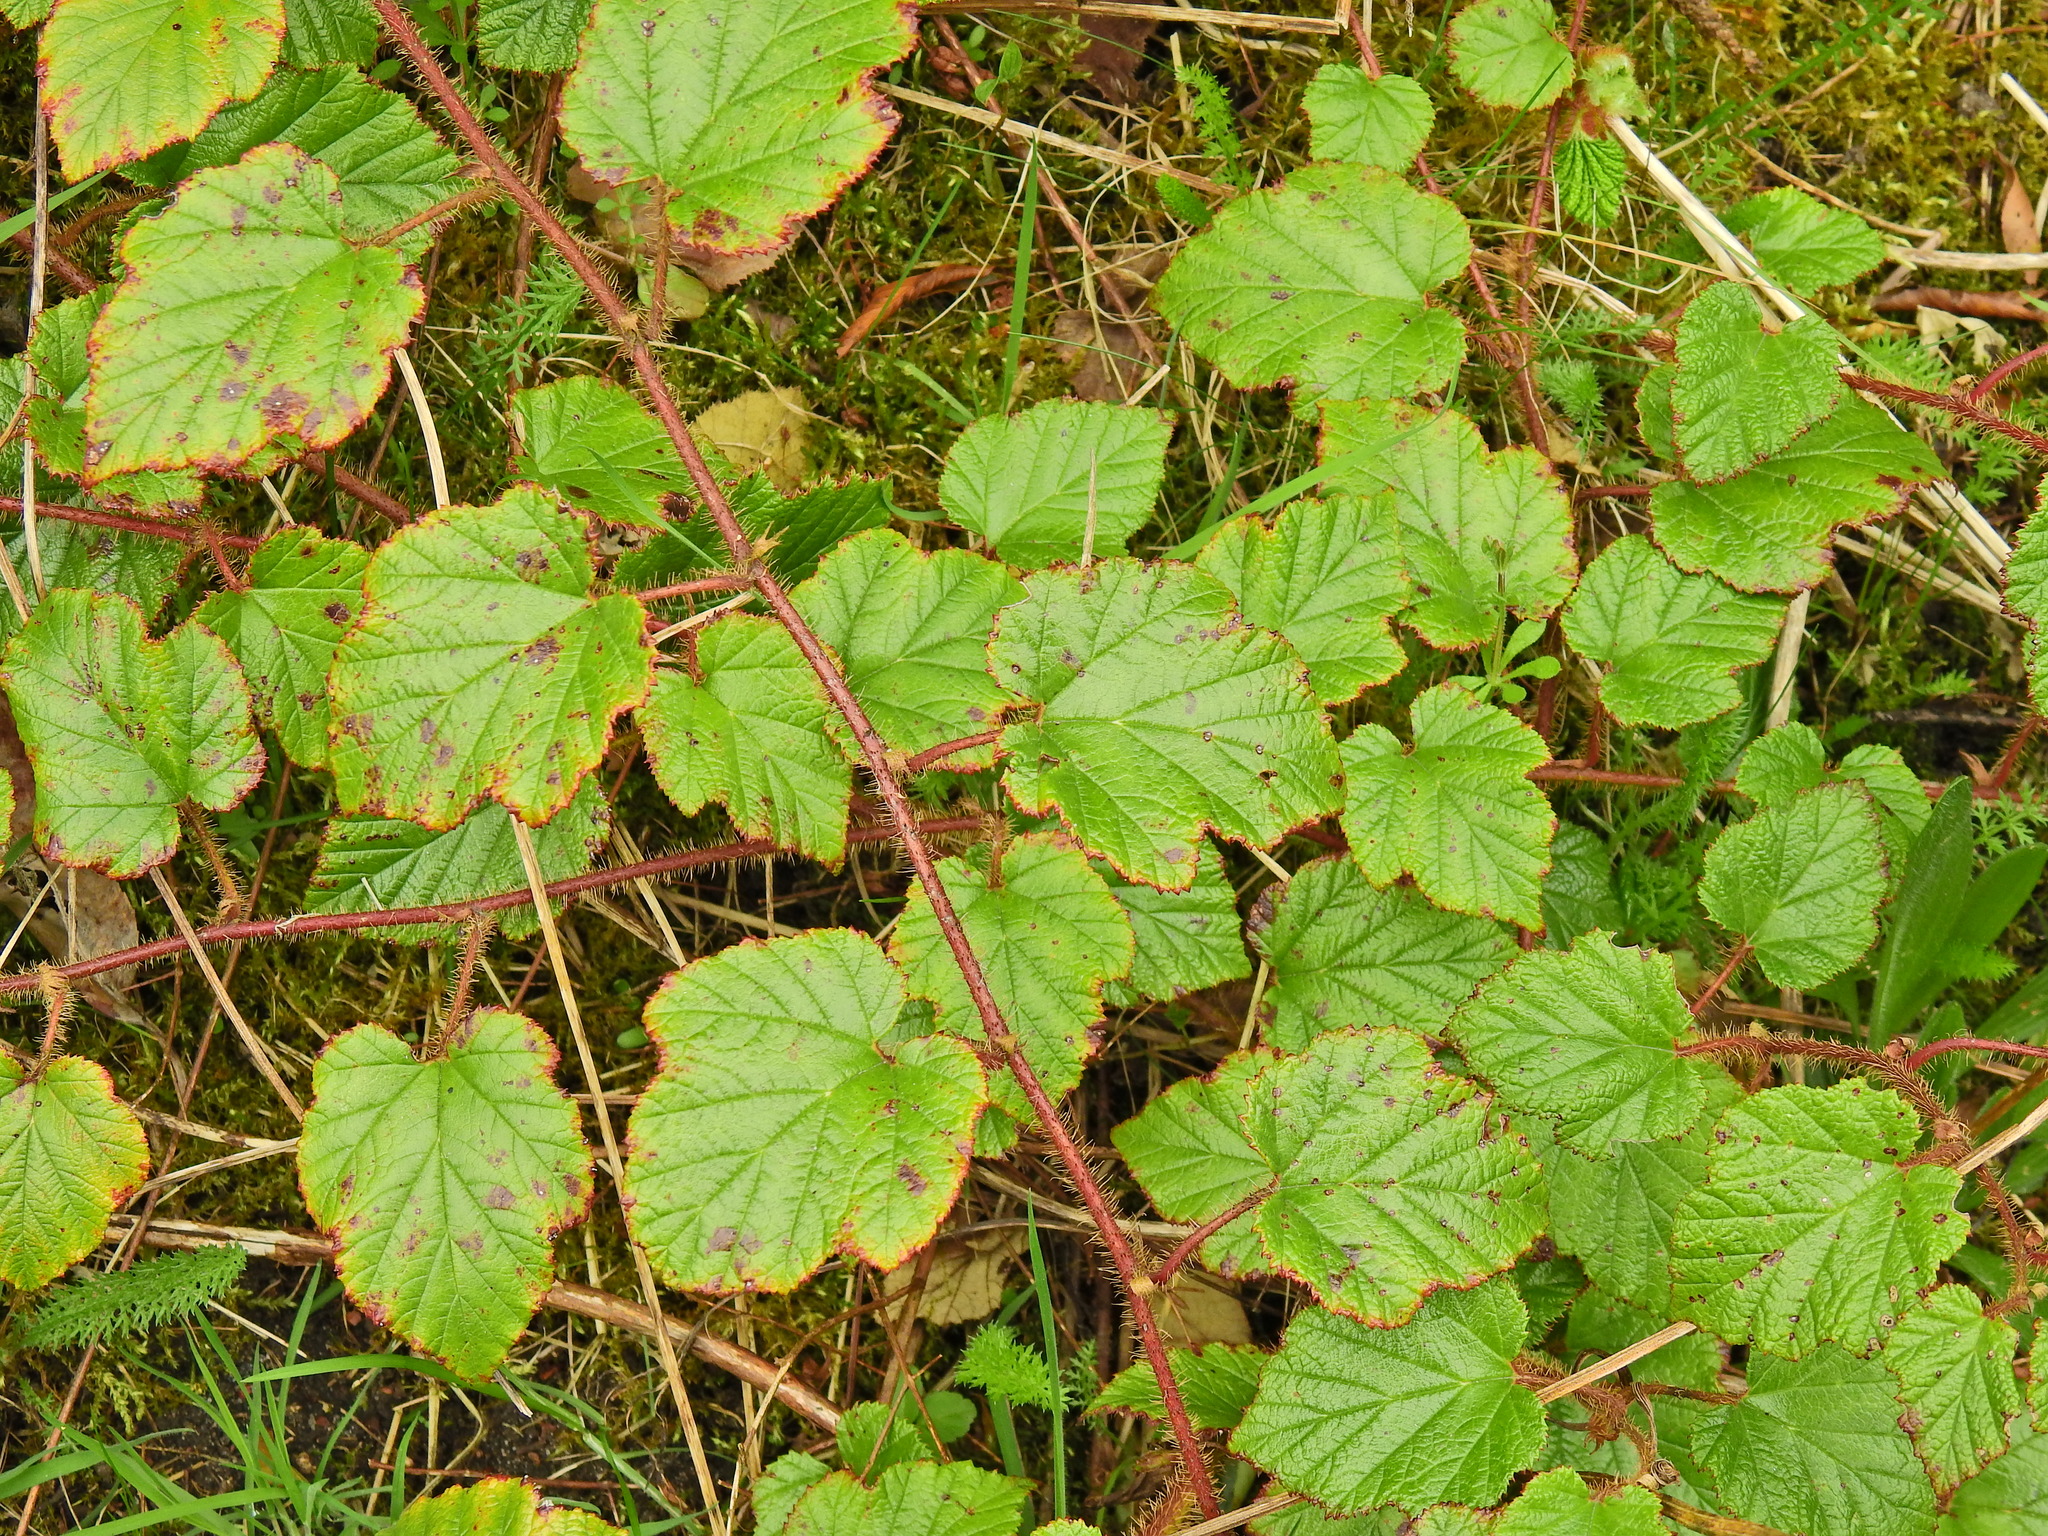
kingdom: Plantae
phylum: Tracheophyta
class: Magnoliopsida
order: Rosales
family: Rosaceae
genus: Rubus
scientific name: Rubus tricolor
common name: Chinese bramble
